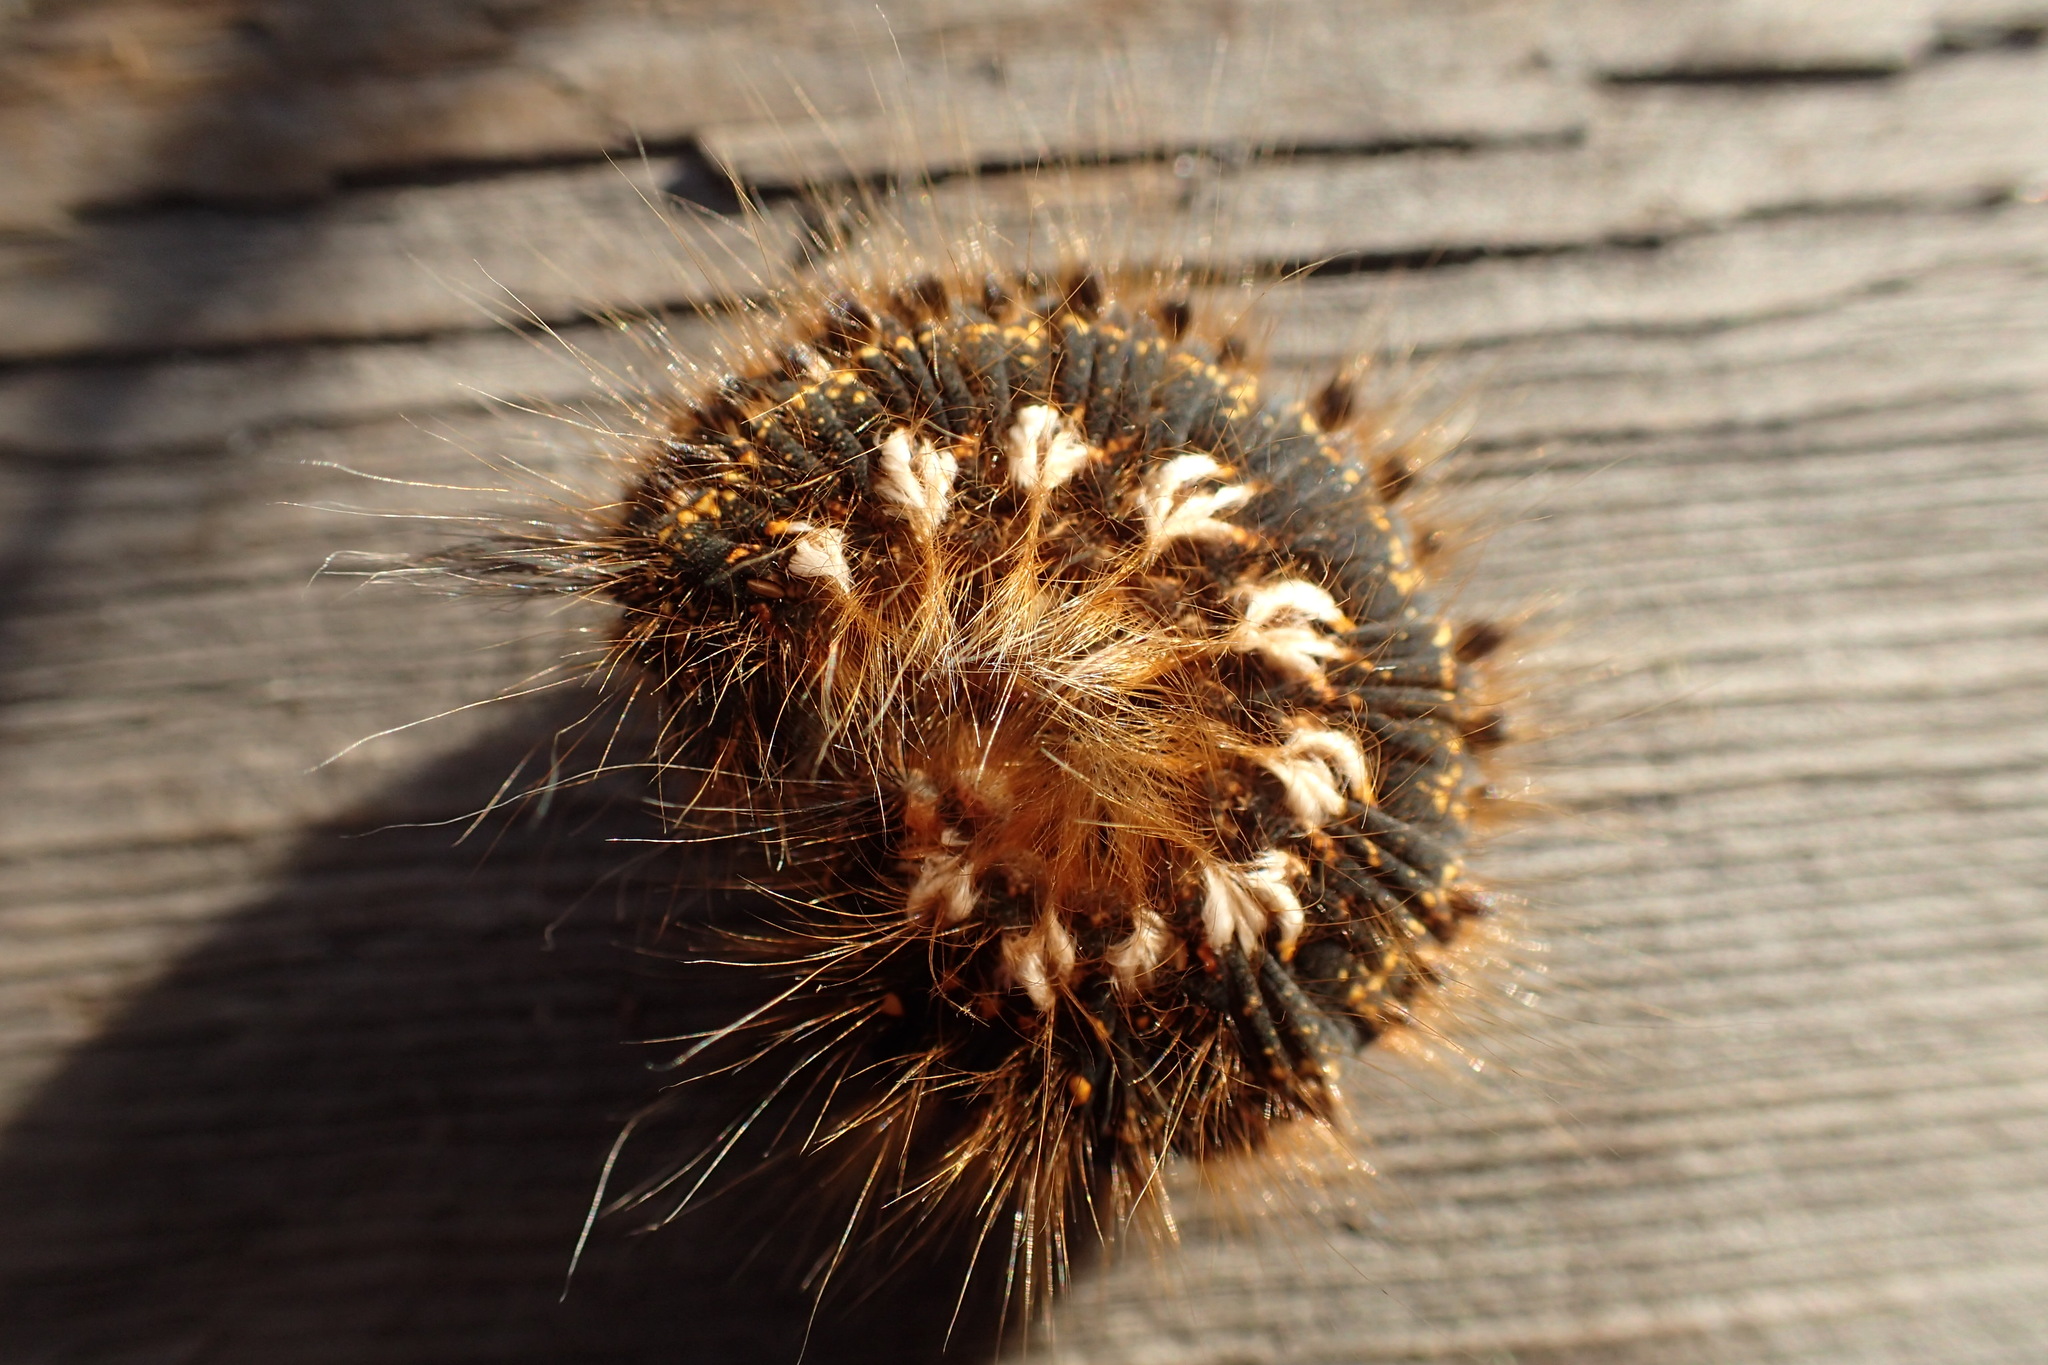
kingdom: Animalia
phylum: Arthropoda
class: Insecta
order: Lepidoptera
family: Lasiocampidae
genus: Euthrix
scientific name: Euthrix potatoria
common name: Drinker
